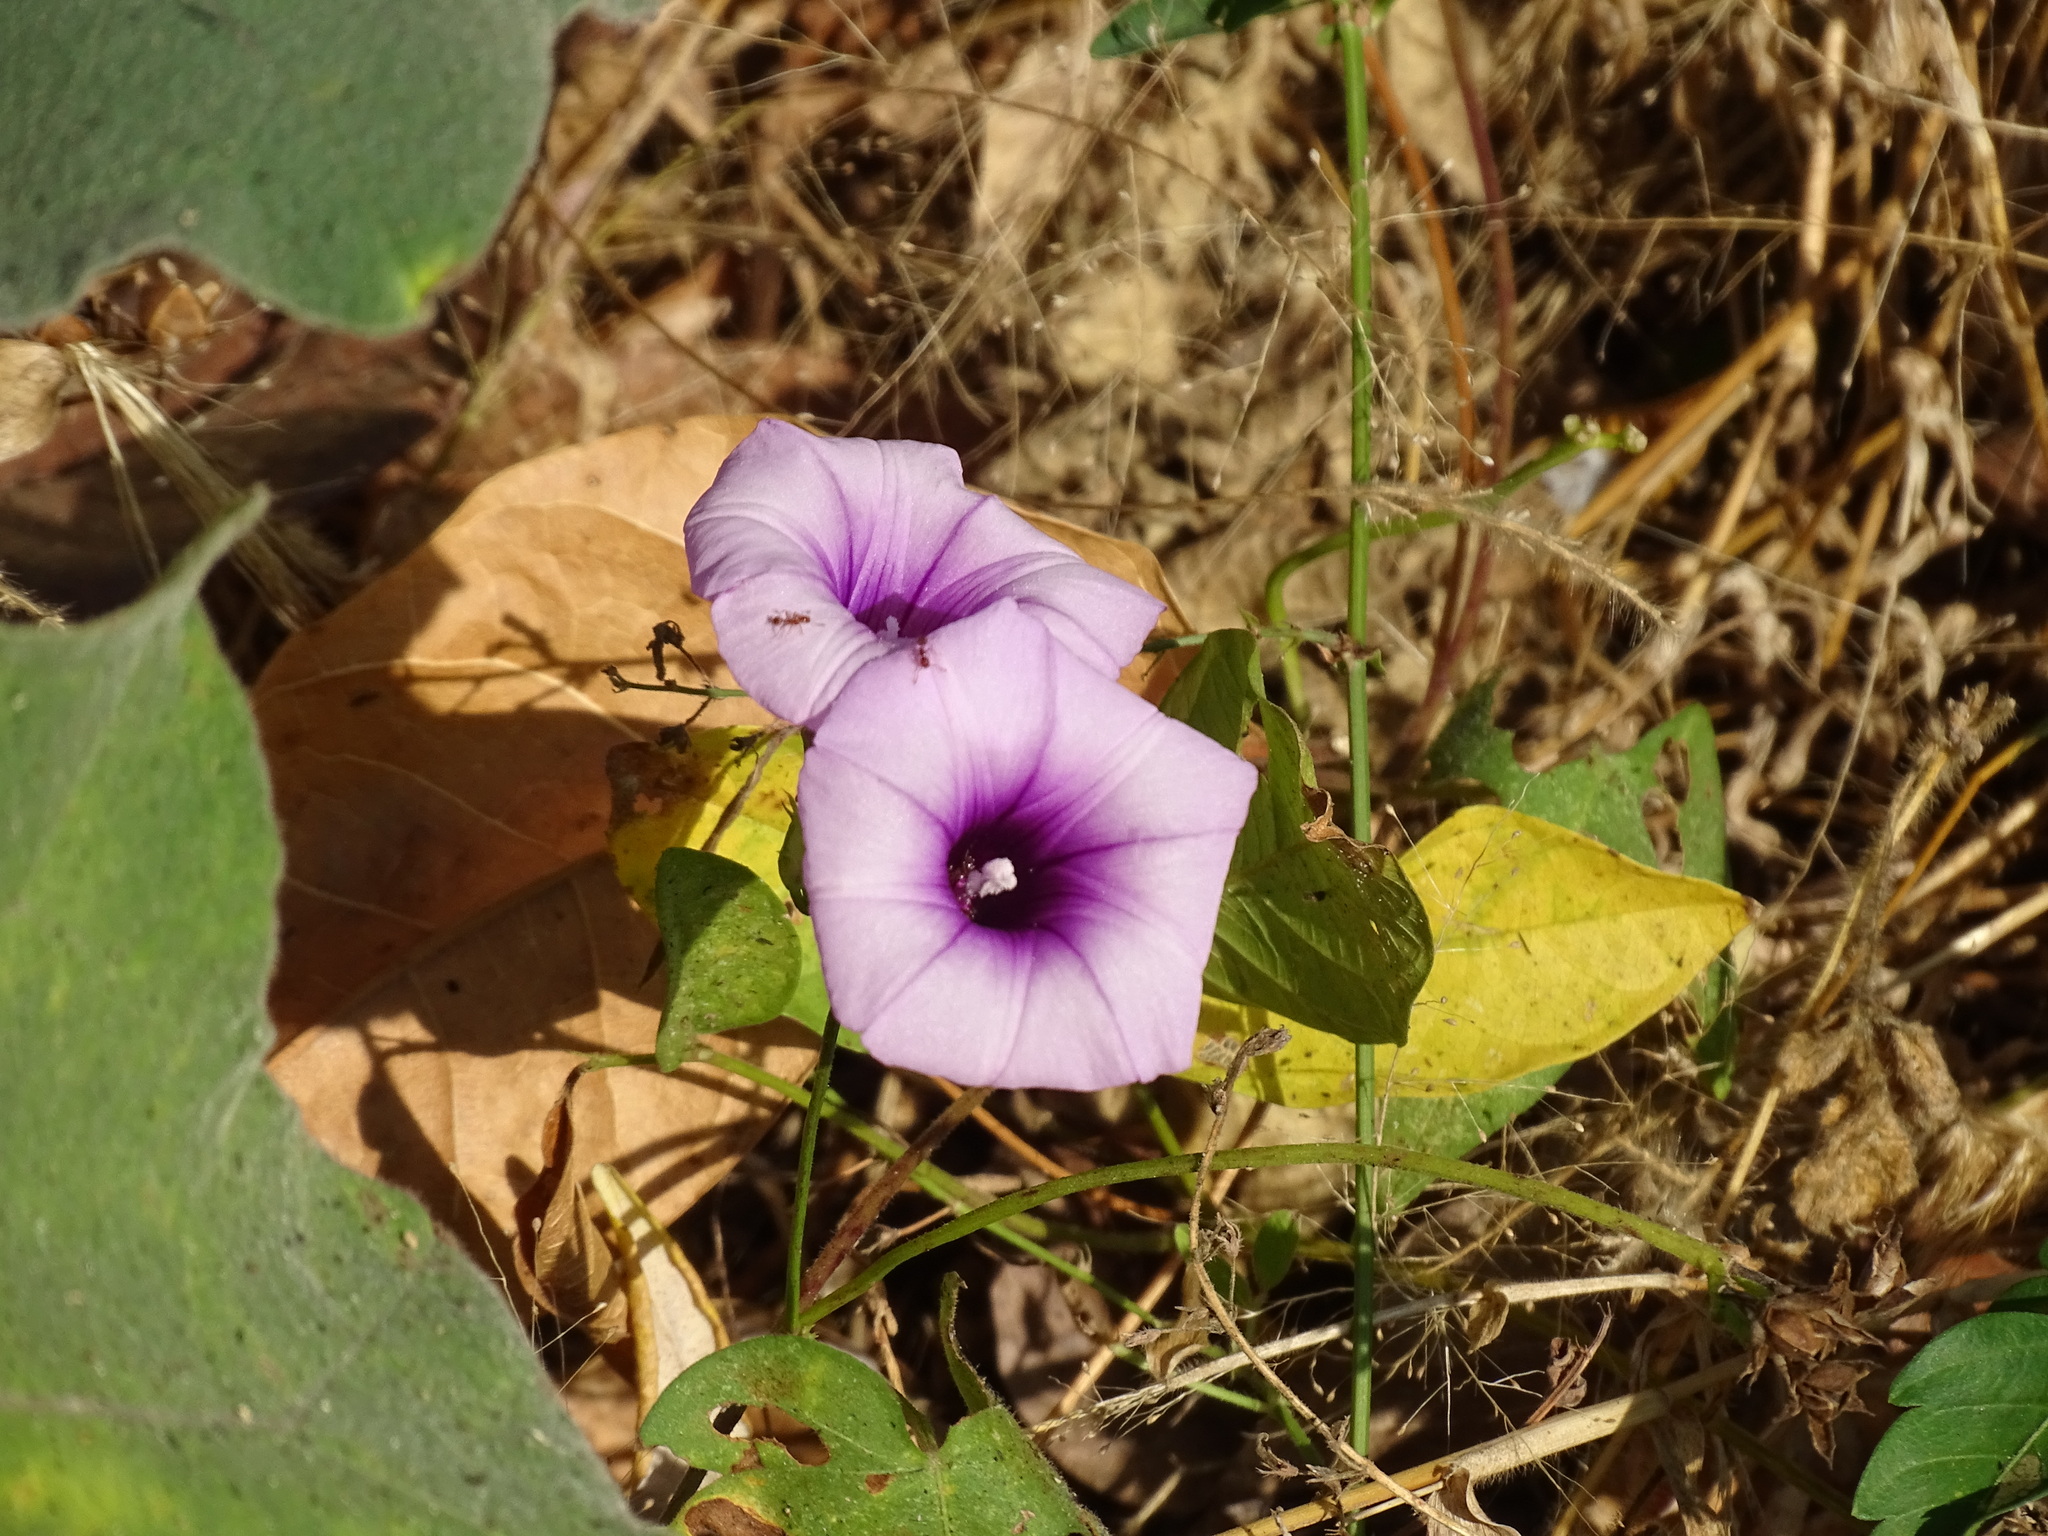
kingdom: Plantae
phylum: Tracheophyta
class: Magnoliopsida
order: Solanales
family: Convolvulaceae
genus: Ipomoea
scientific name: Ipomoea trifida
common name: Cotton morningglory
